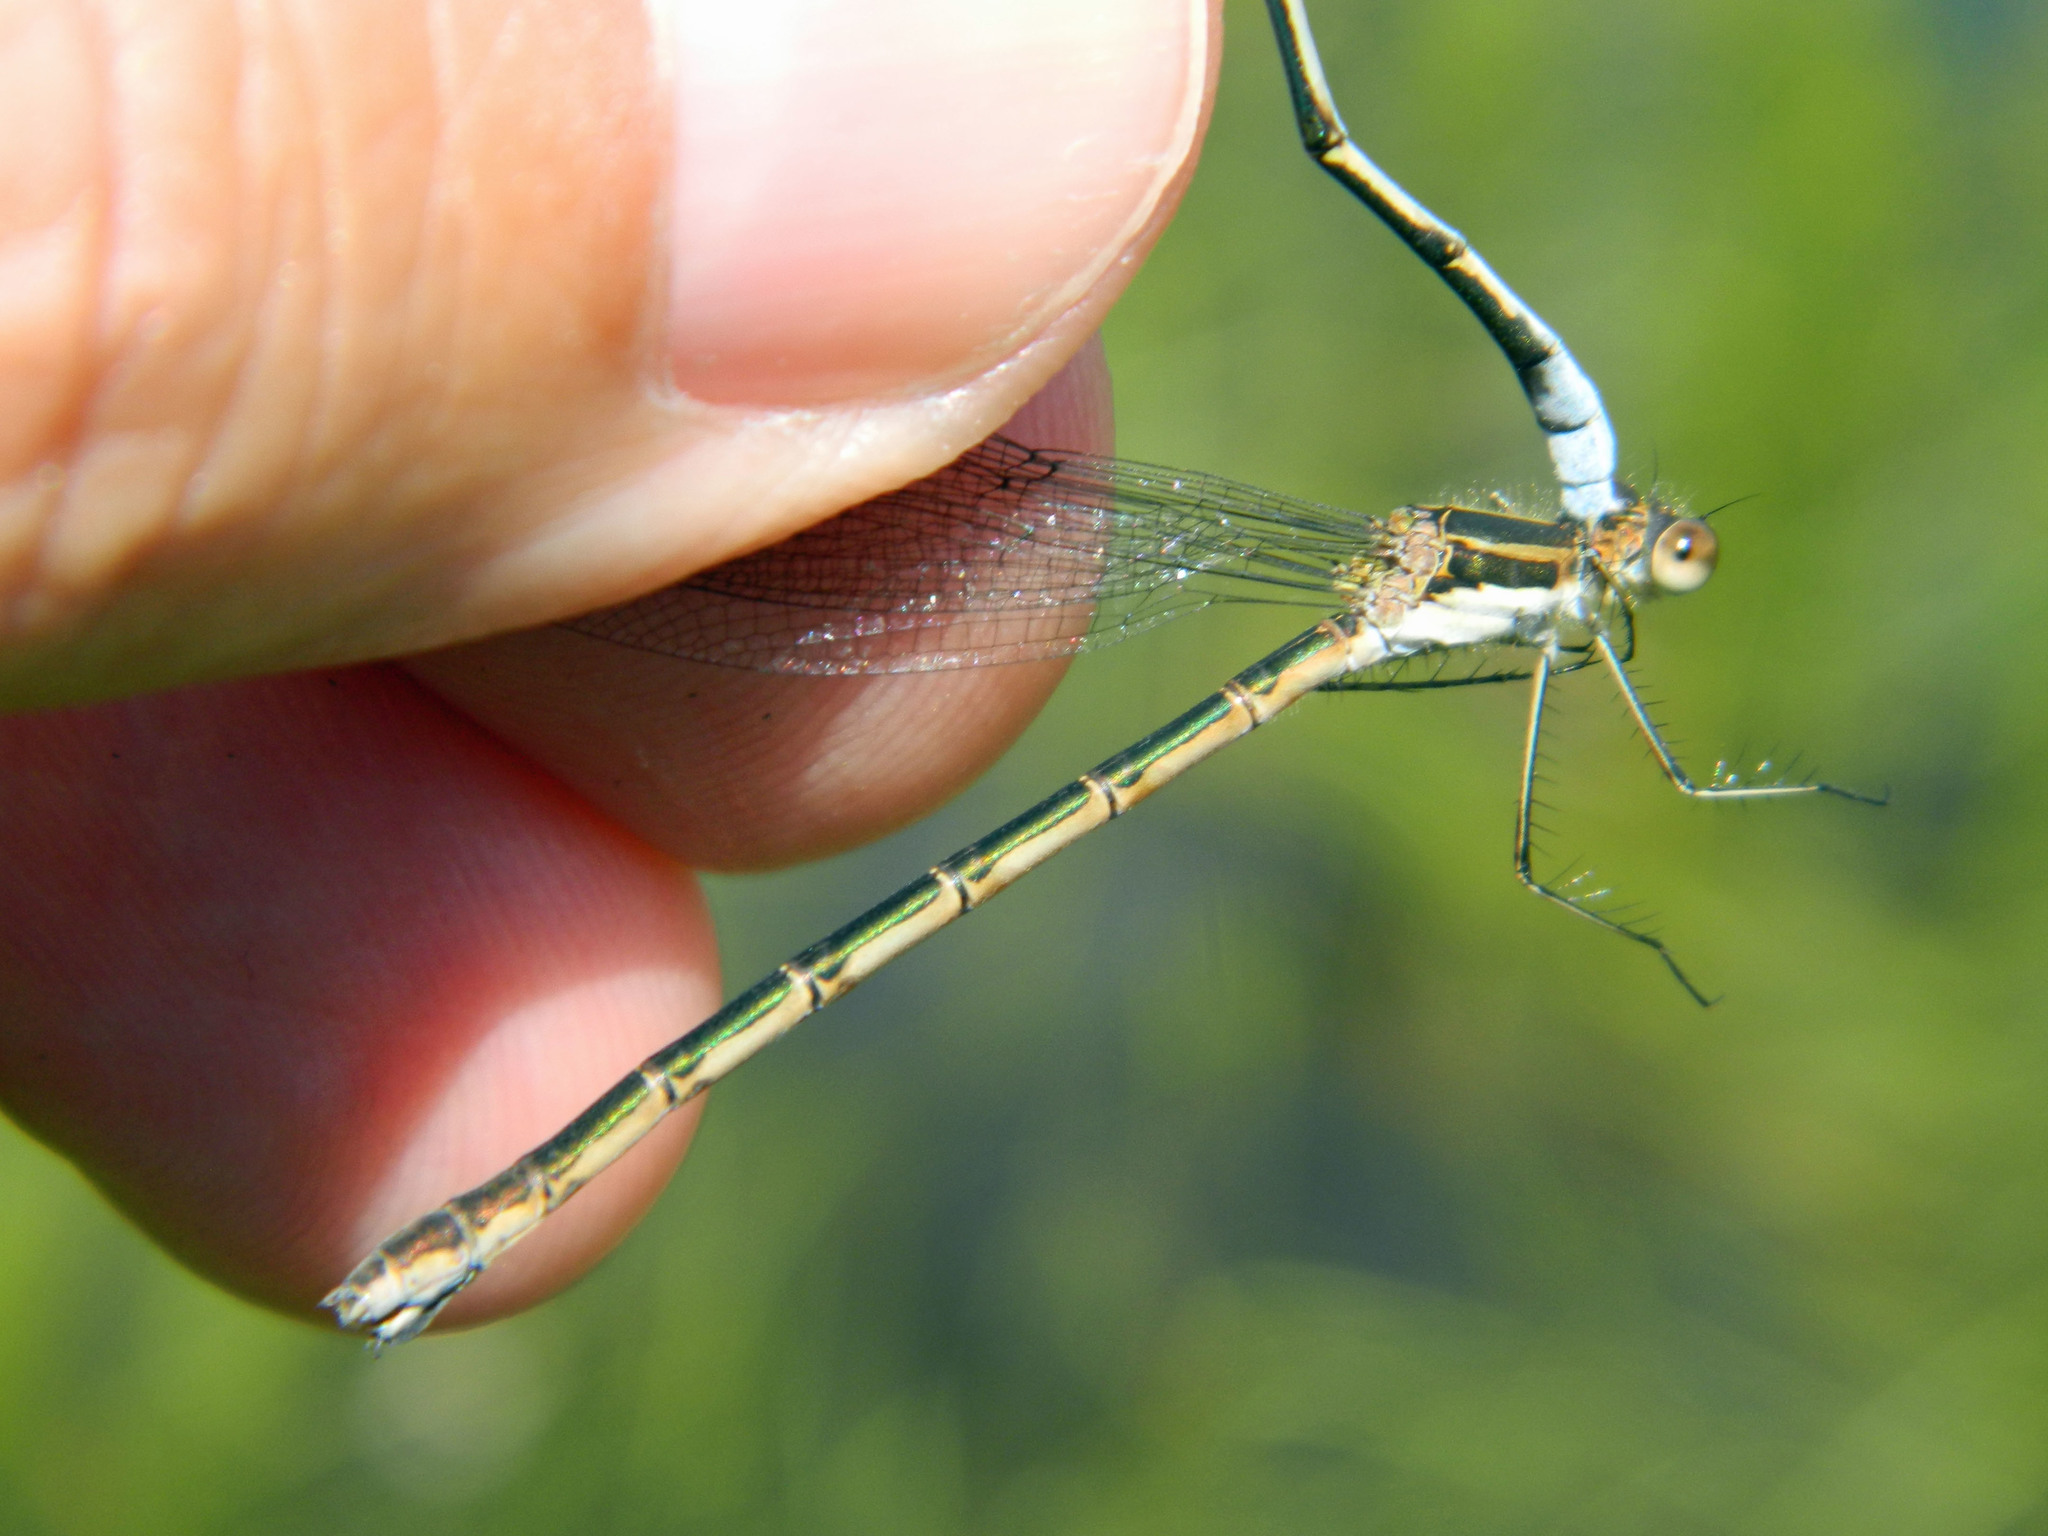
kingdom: Animalia
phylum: Arthropoda
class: Insecta
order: Odonata
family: Lestidae
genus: Lestes
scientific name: Lestes disjunctus
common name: Northern spreadwing
